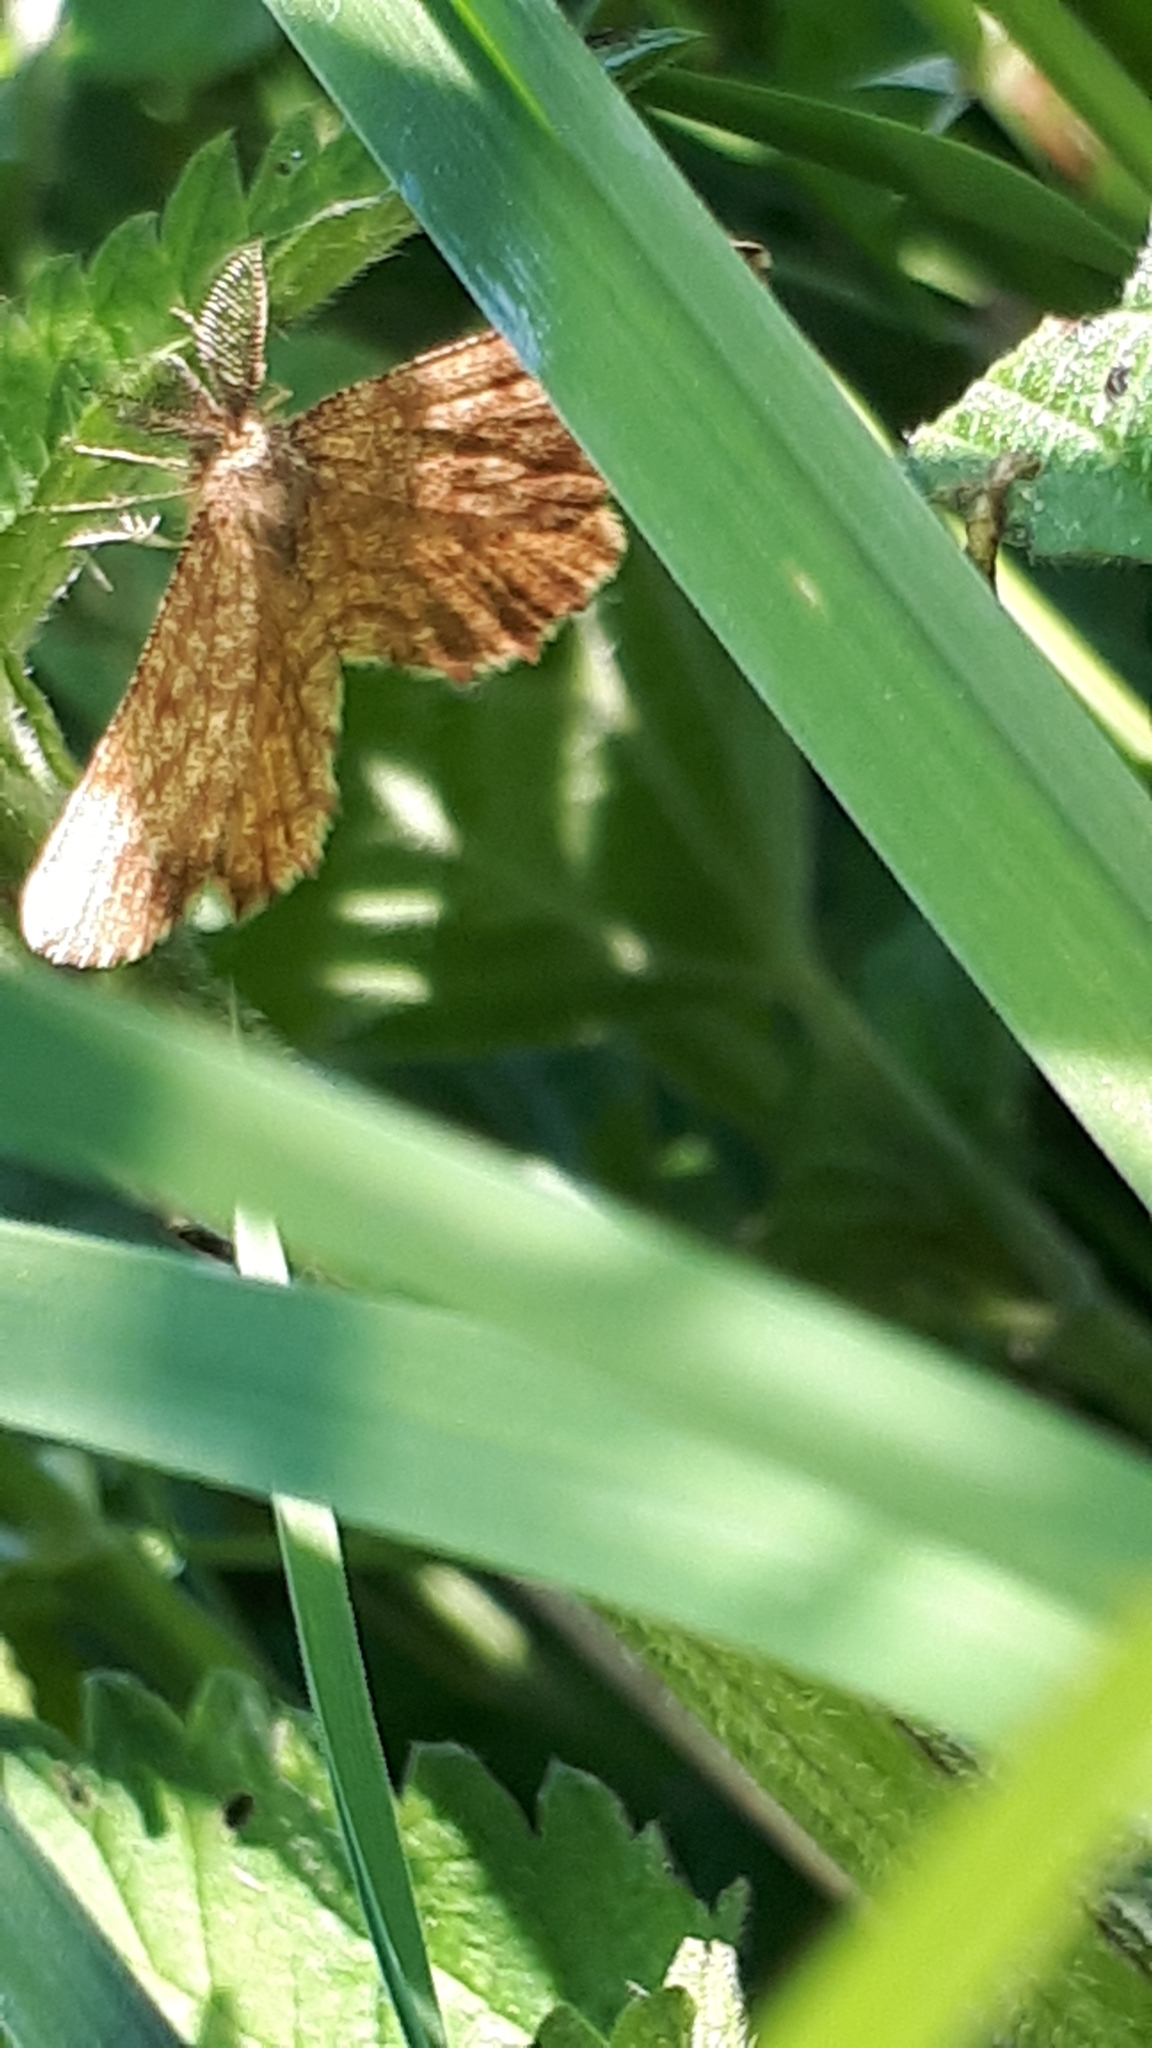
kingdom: Animalia
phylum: Arthropoda
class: Insecta
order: Lepidoptera
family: Geometridae
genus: Ematurga
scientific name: Ematurga atomaria
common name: Common heath
